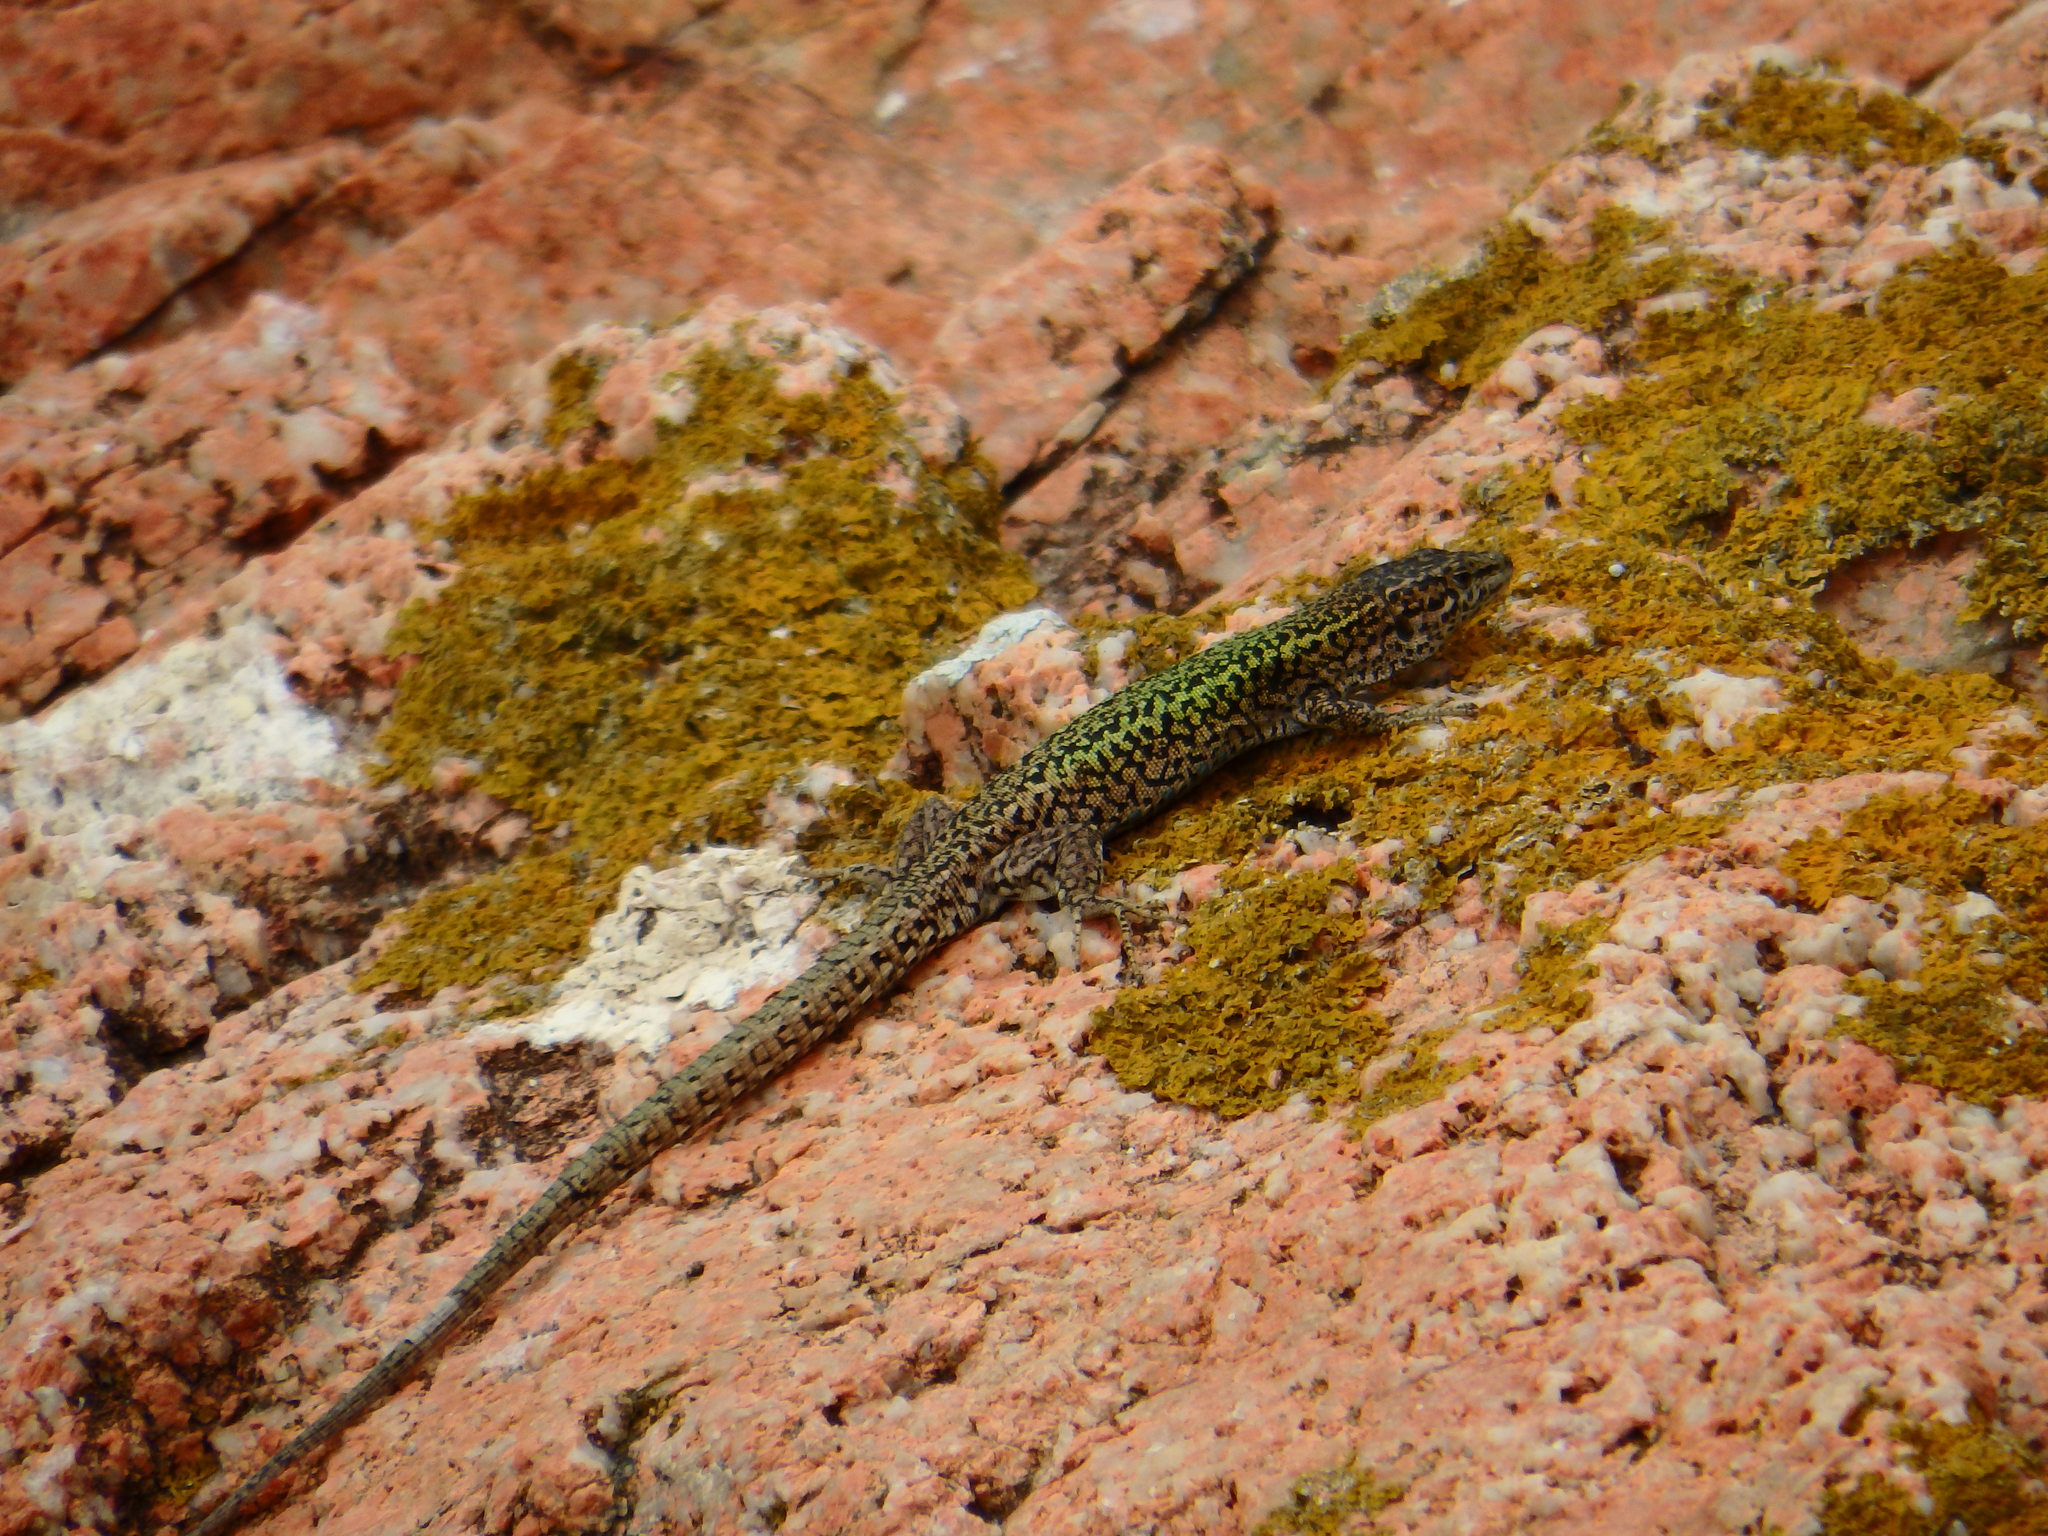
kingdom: Animalia
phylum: Chordata
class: Squamata
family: Lacertidae
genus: Podarcis
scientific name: Podarcis carbonelli
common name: Carbonelli's wall lizard
